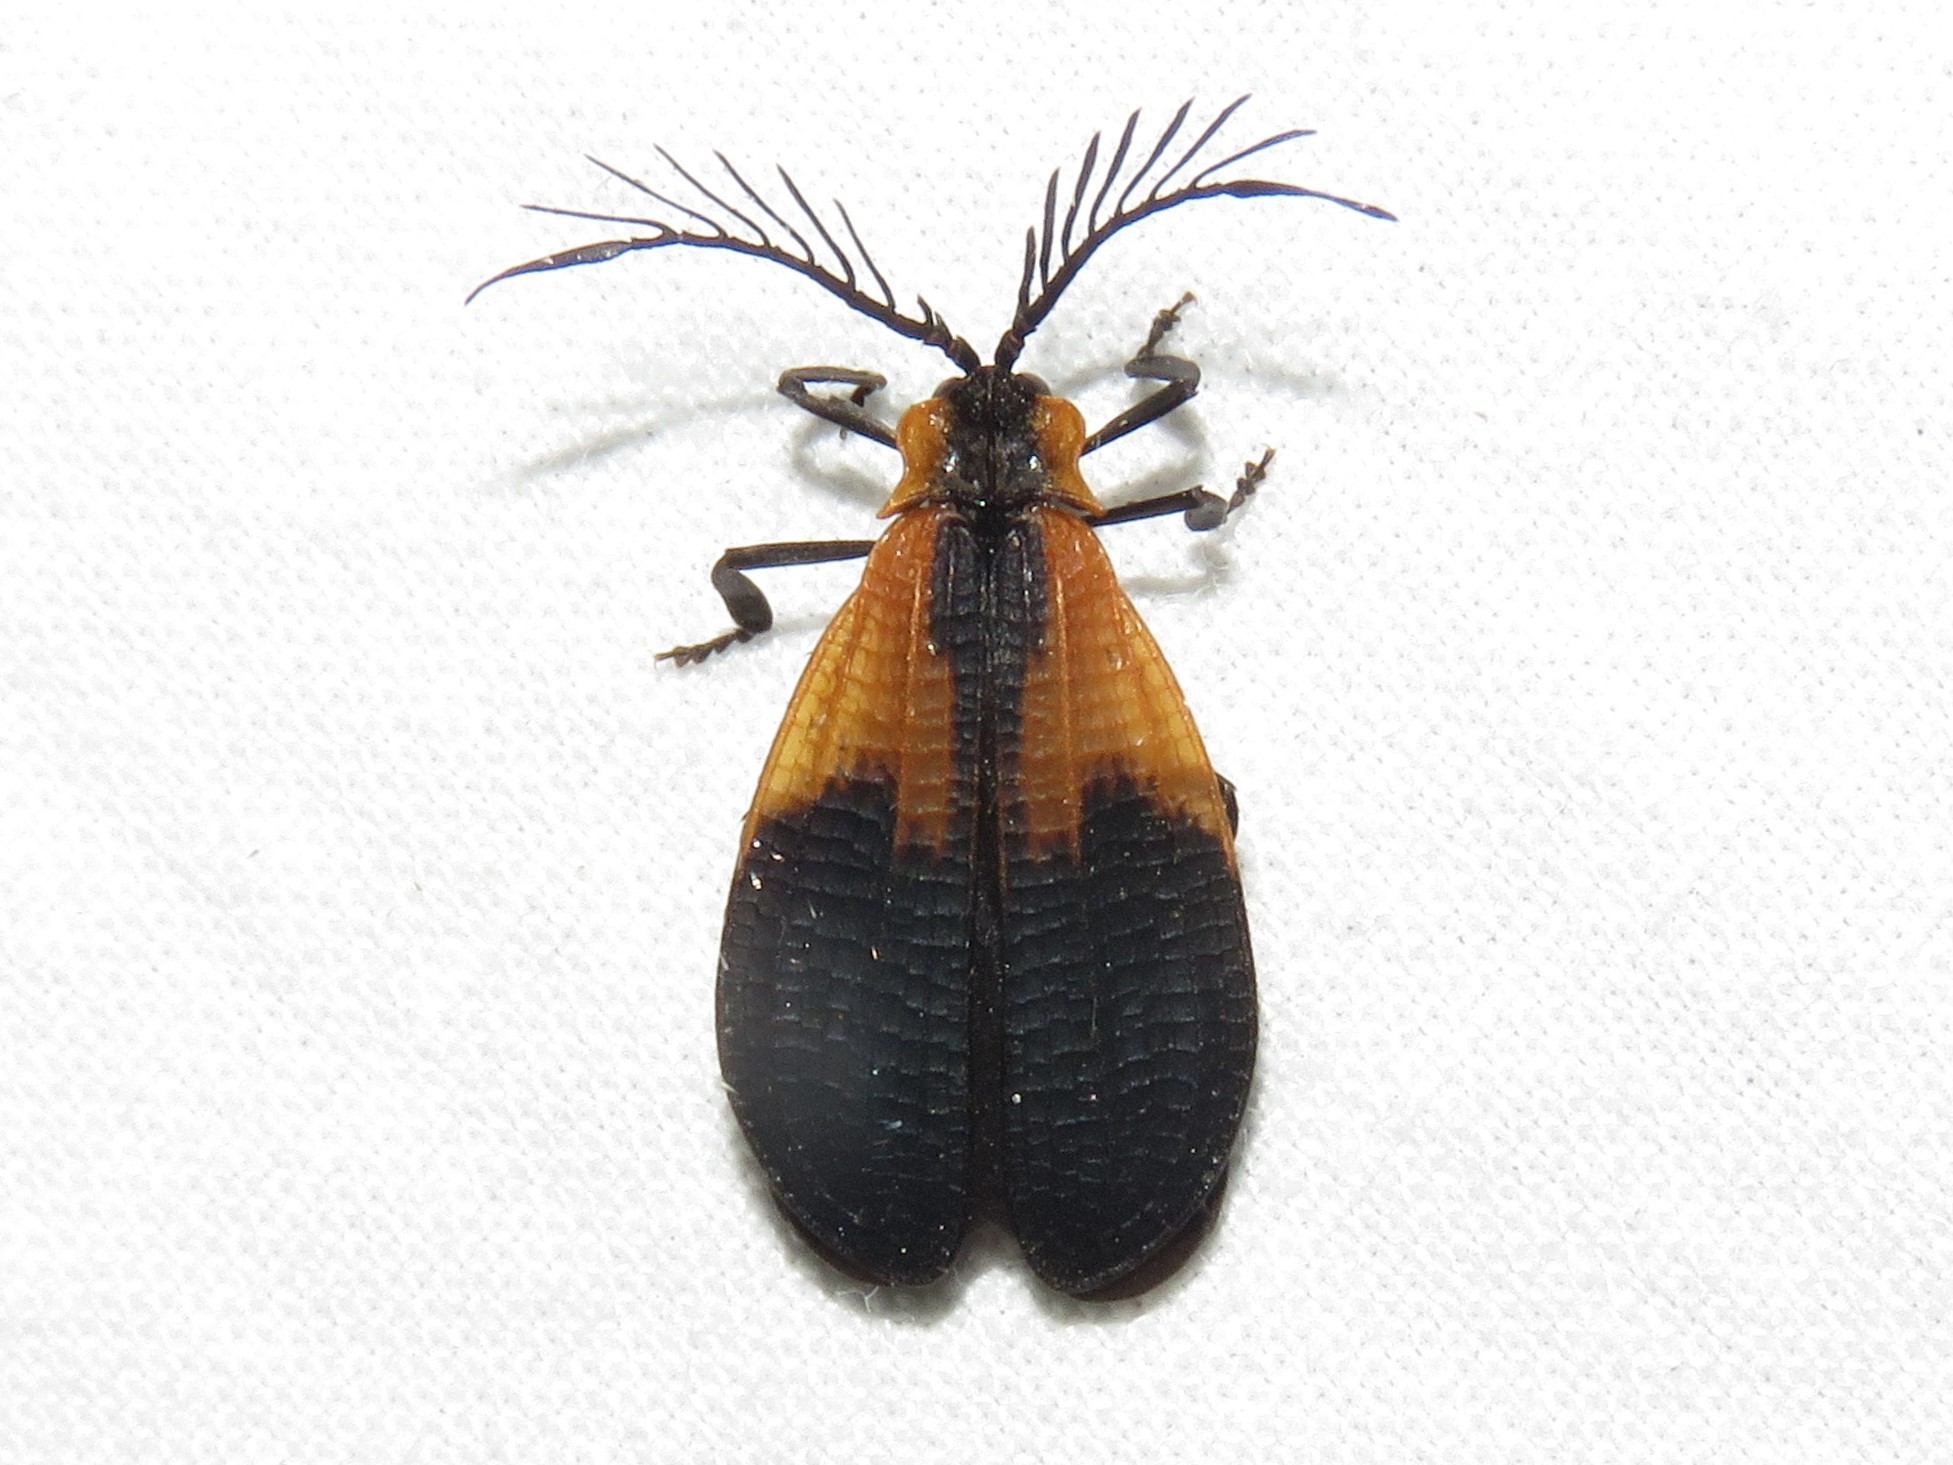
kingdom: Animalia
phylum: Arthropoda
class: Insecta
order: Coleoptera
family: Lycidae
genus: Caenia
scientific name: Caenia dimidiata
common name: Terminal net-winged beetle
